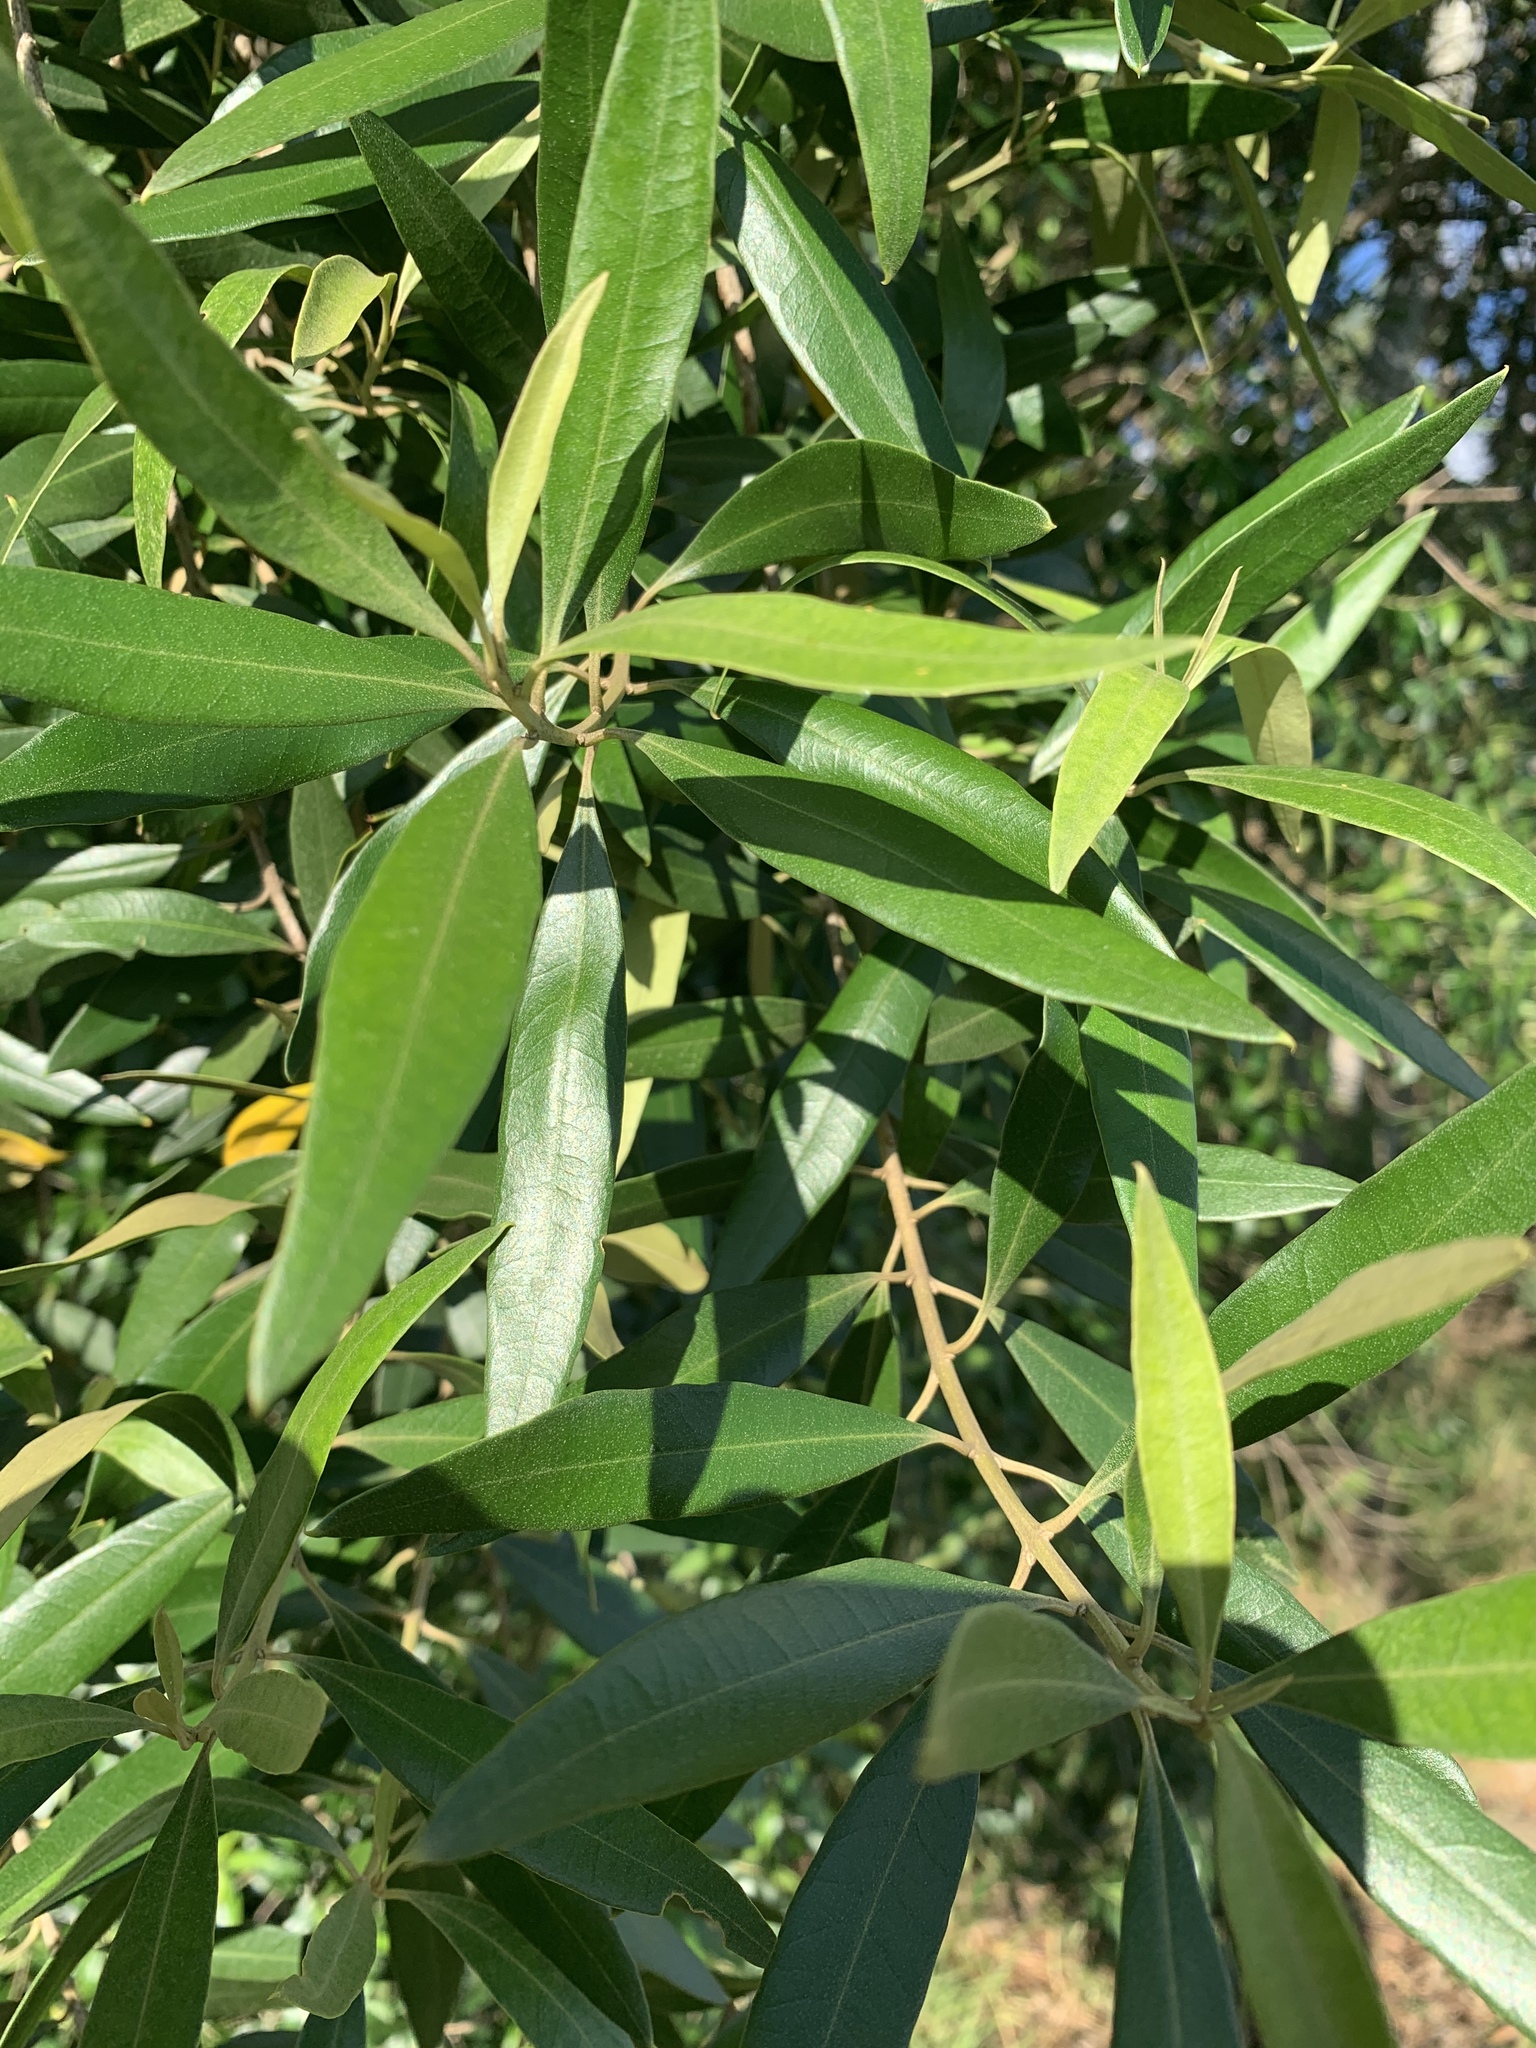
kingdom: Plantae
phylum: Tracheophyta
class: Magnoliopsida
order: Lamiales
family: Oleaceae
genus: Olea
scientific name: Olea europaea
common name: Olive
